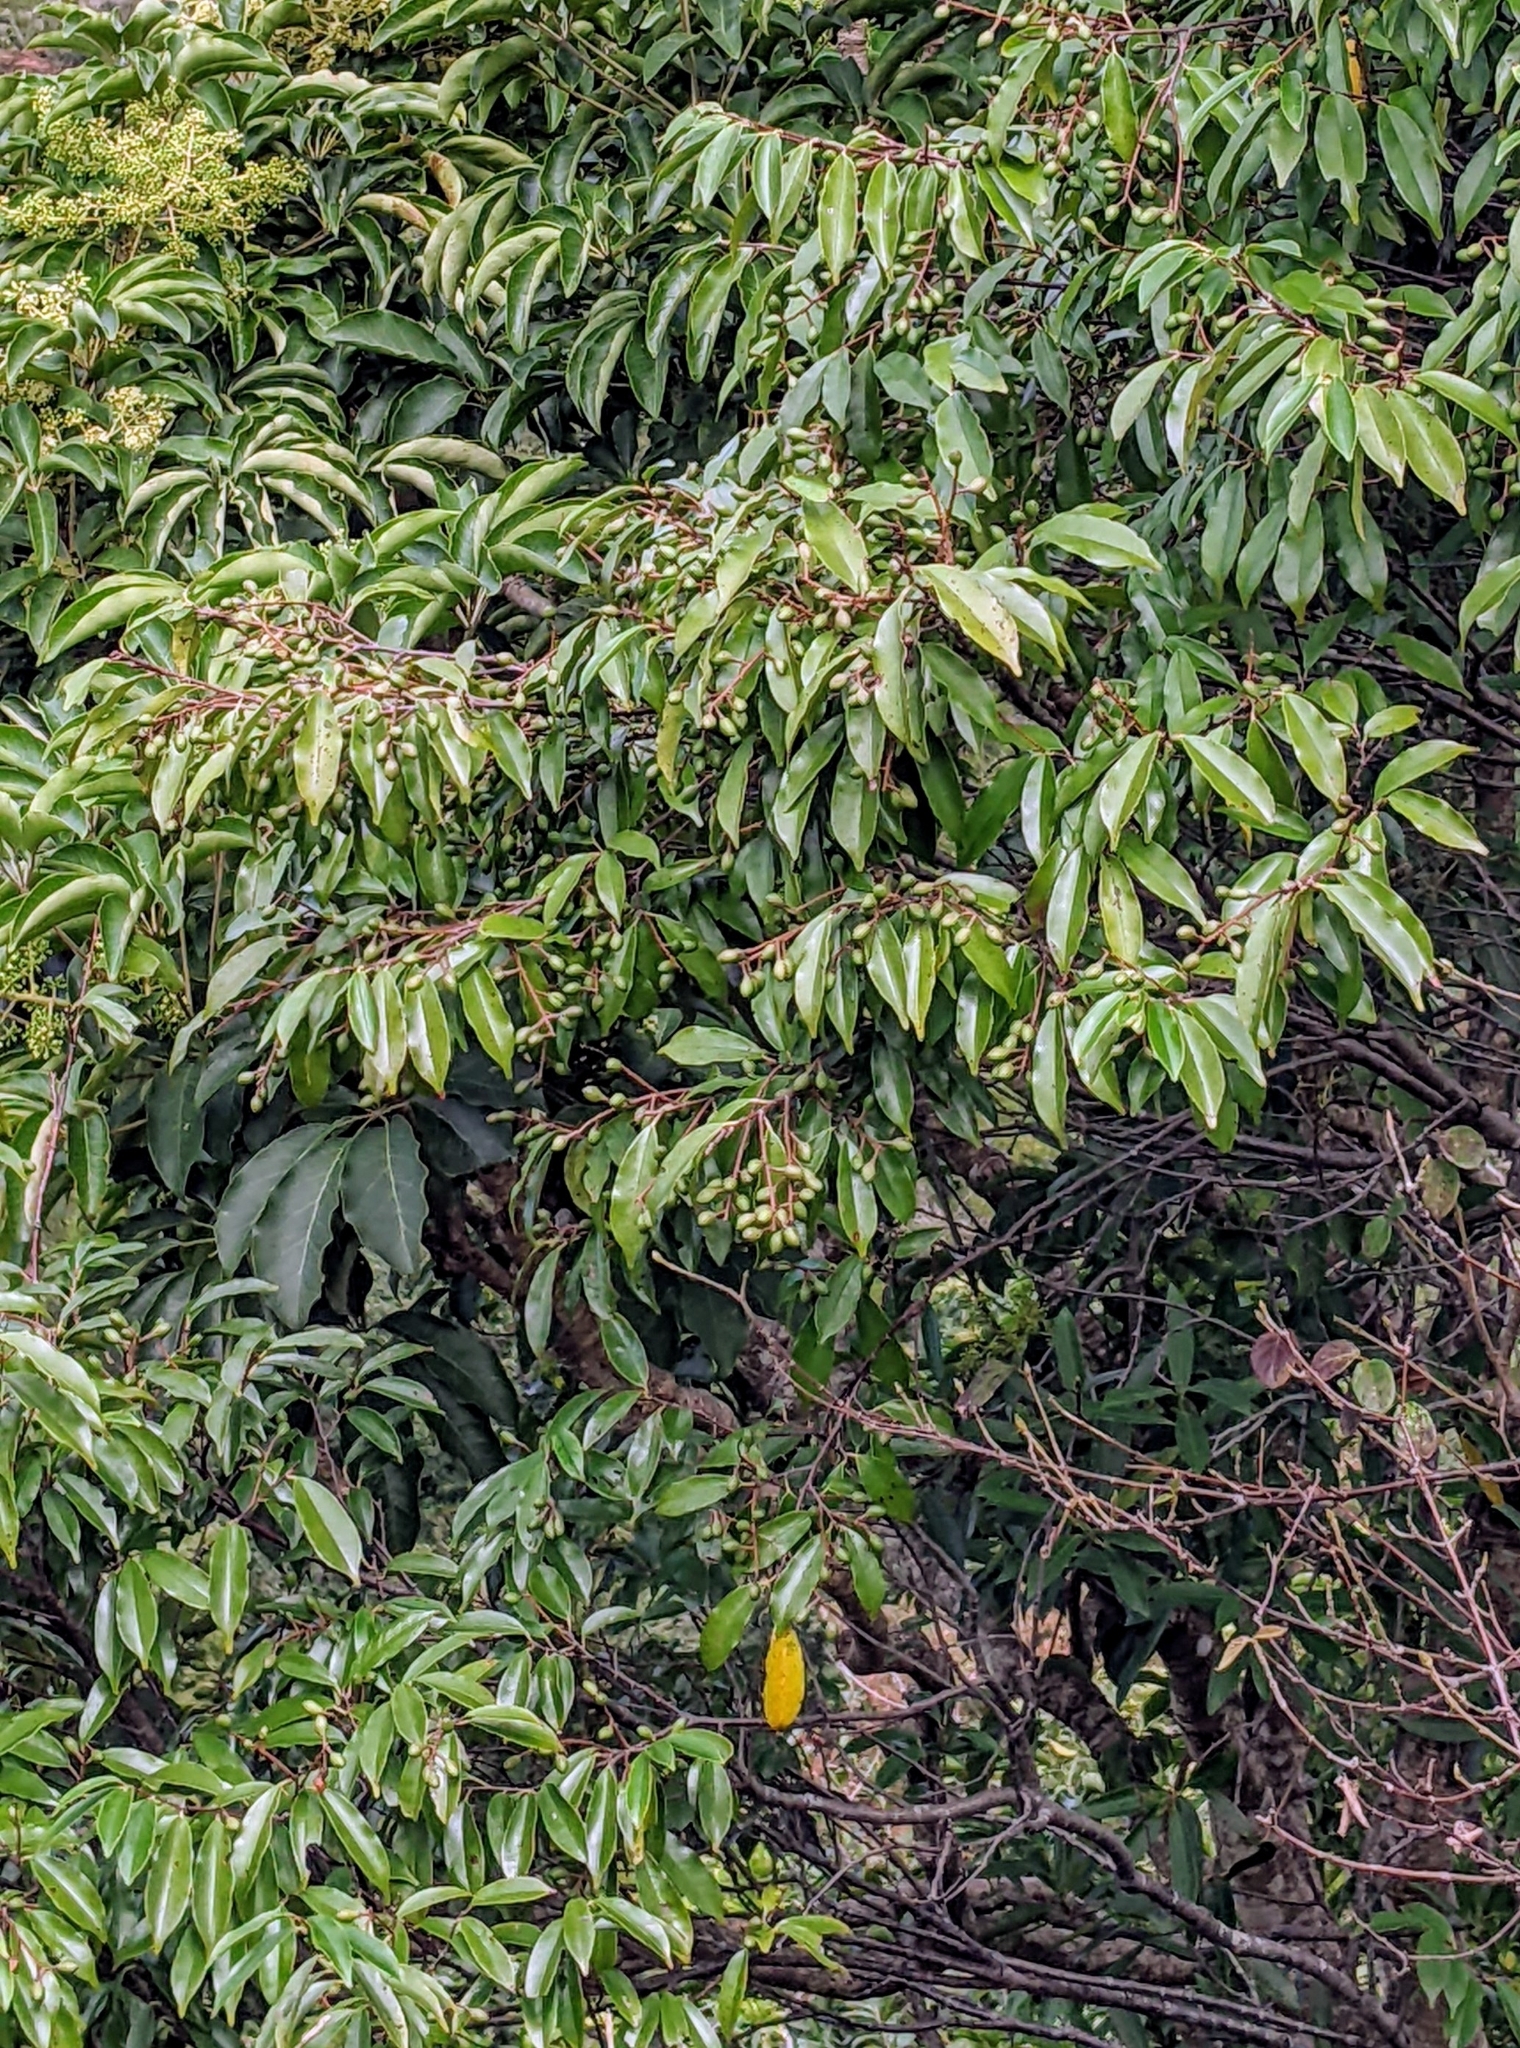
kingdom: Plantae
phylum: Tracheophyta
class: Magnoliopsida
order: Rosales
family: Rosaceae
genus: Prunus
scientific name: Prunus spinulosa
